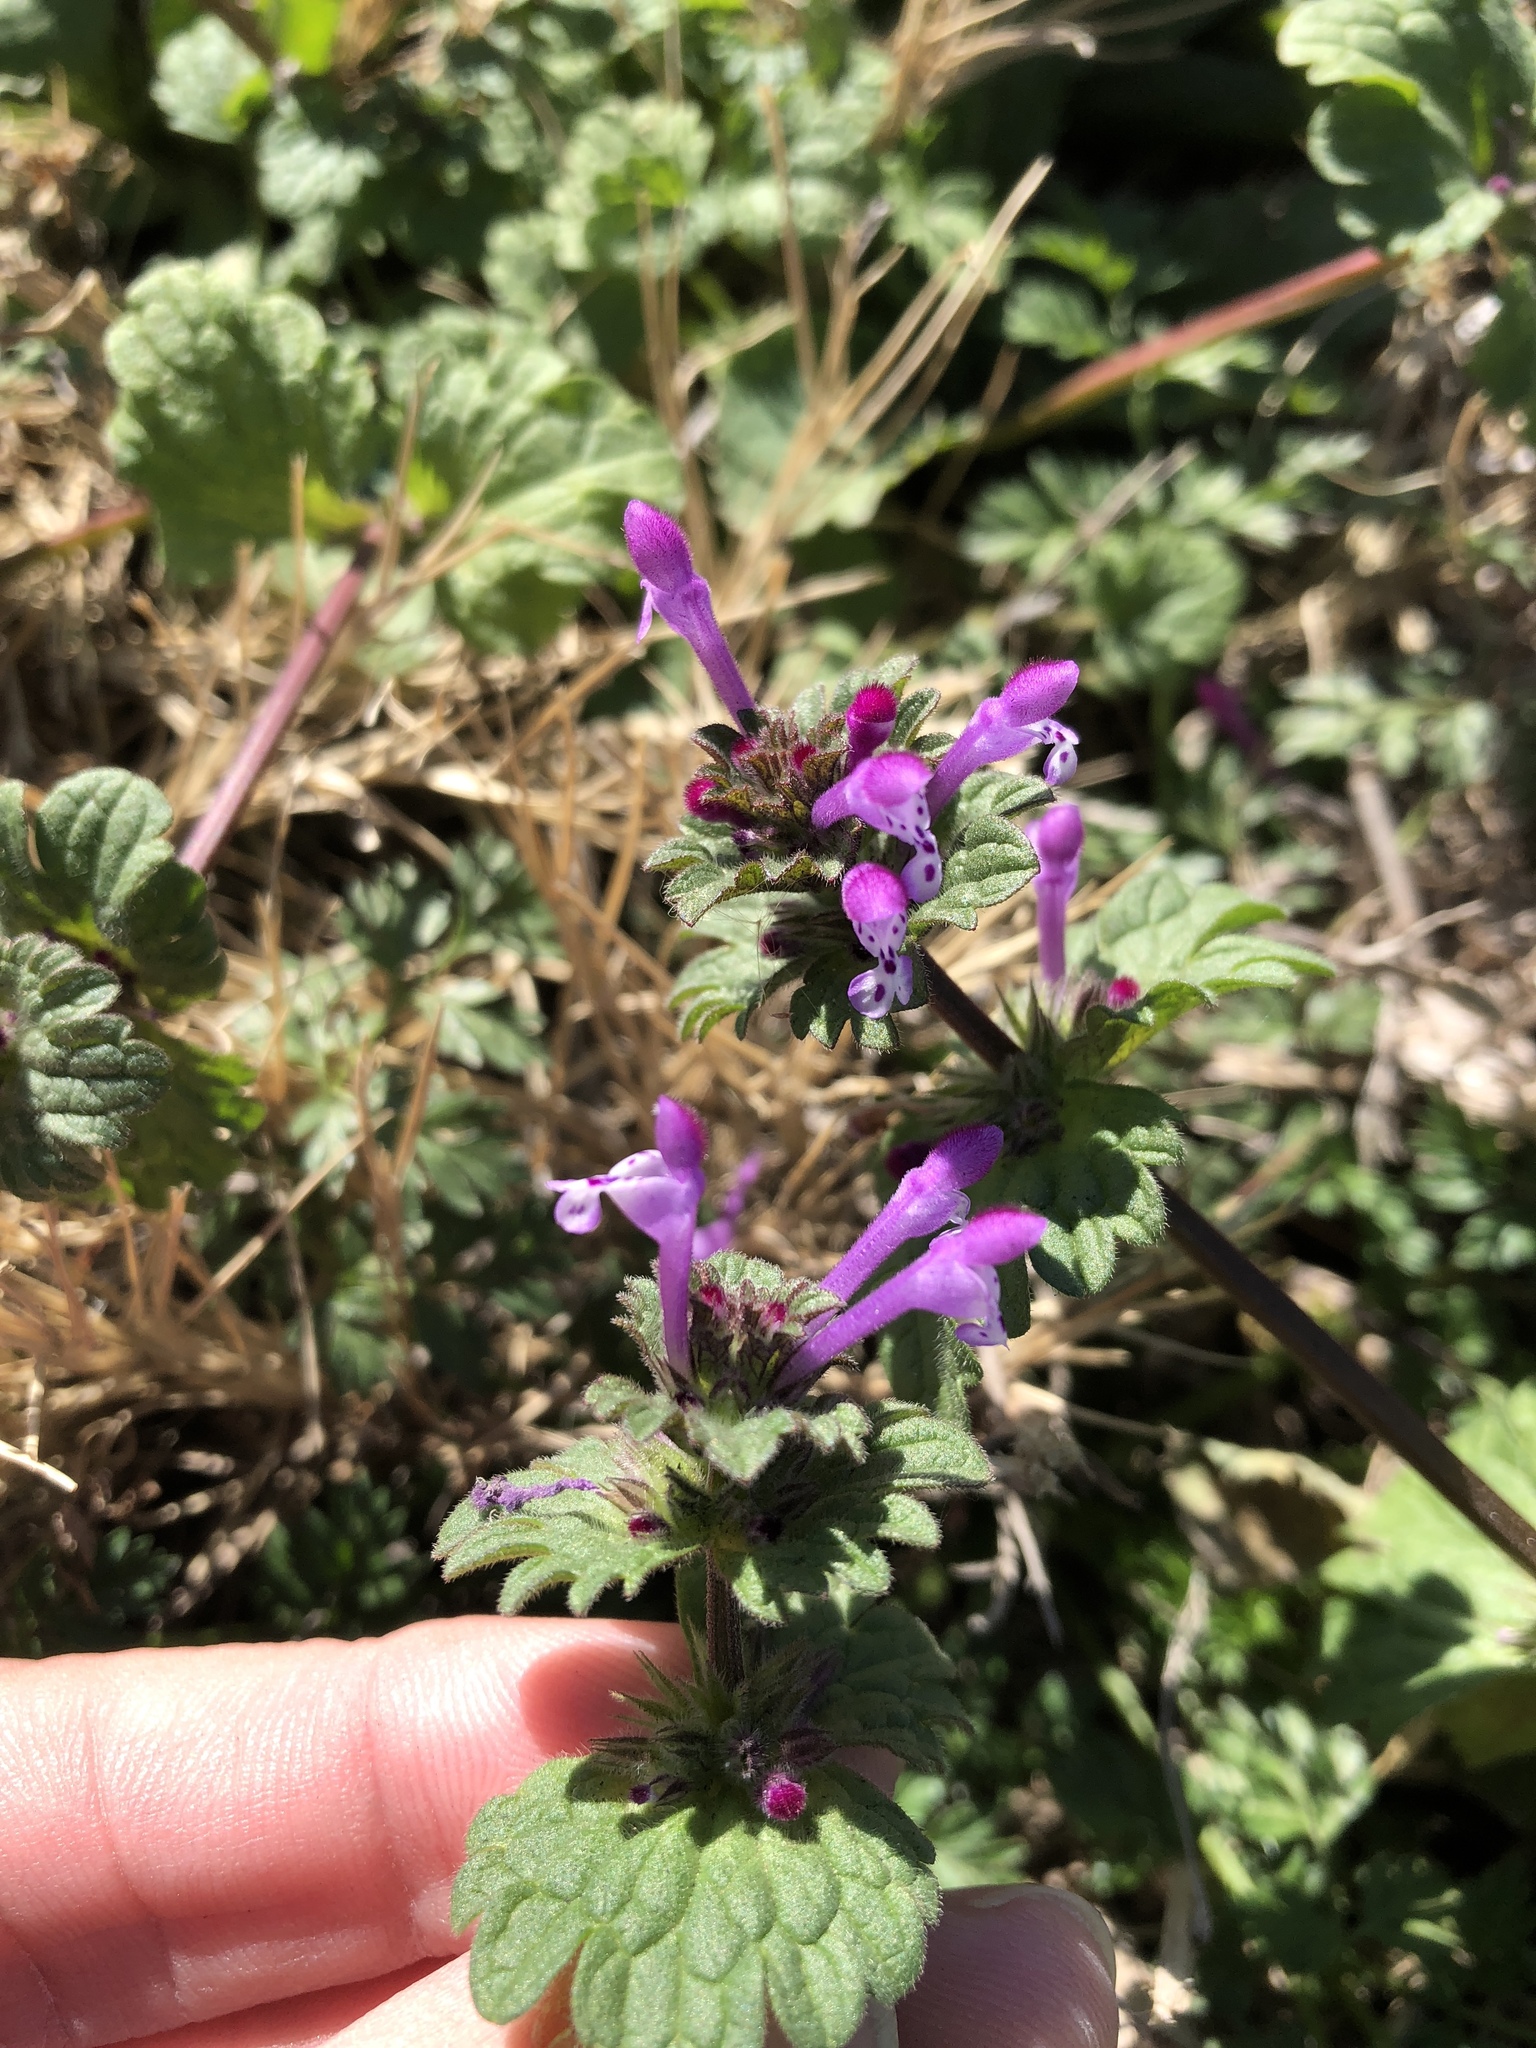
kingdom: Plantae
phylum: Tracheophyta
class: Magnoliopsida
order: Lamiales
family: Lamiaceae
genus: Lamium
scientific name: Lamium amplexicaule
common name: Henbit dead-nettle
